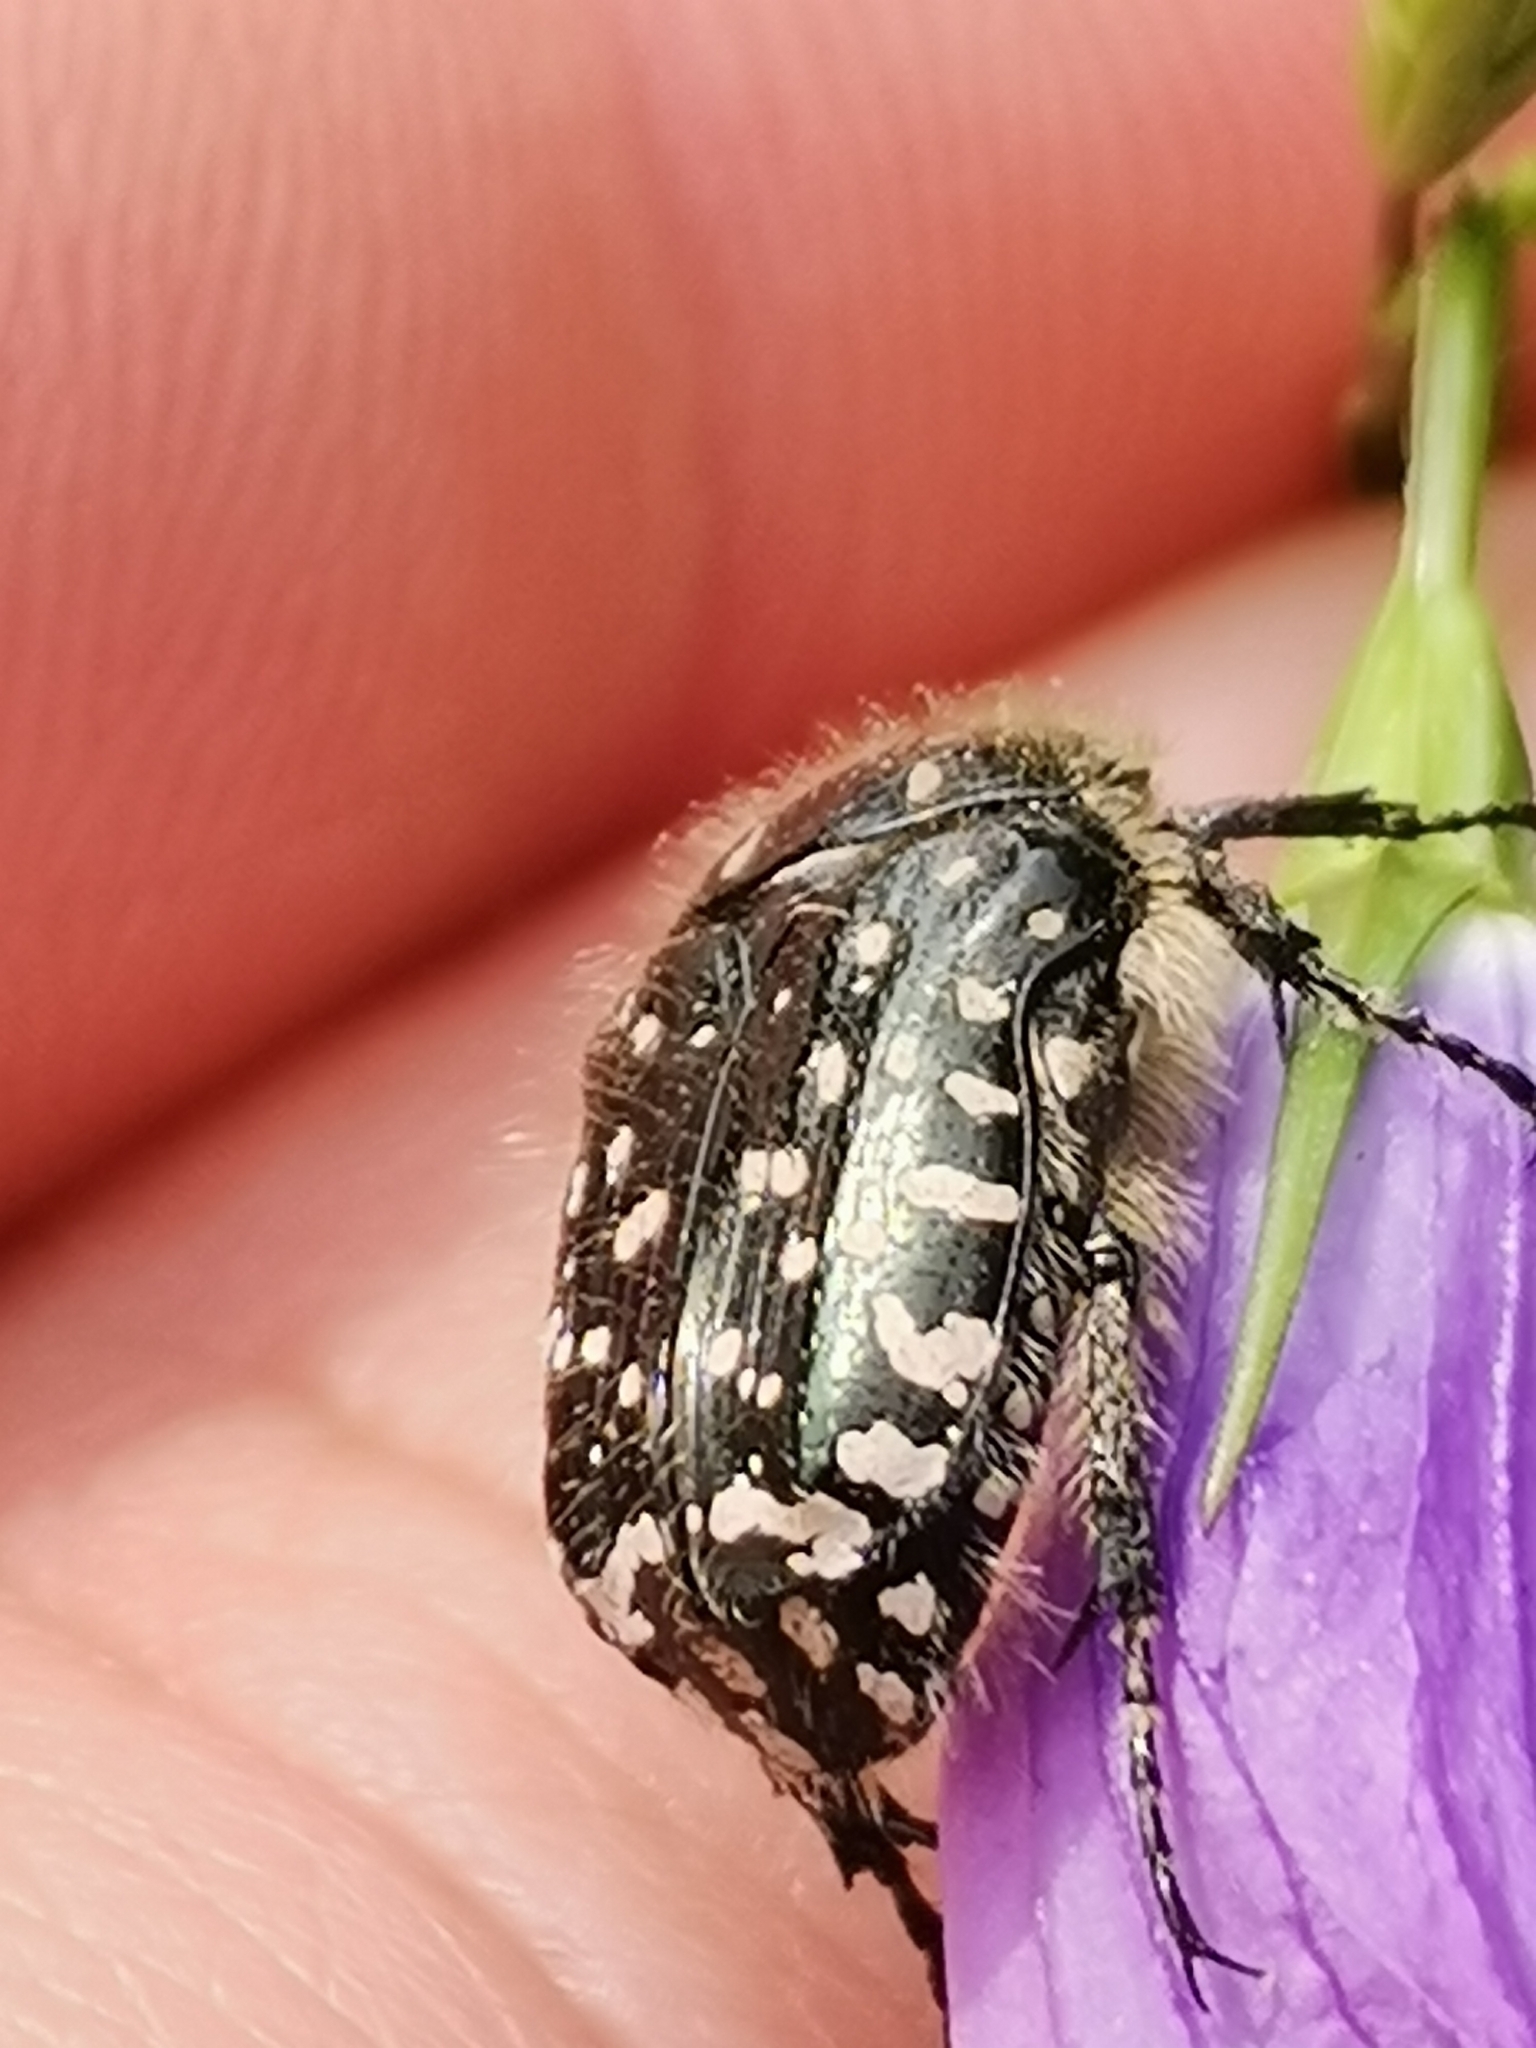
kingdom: Animalia
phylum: Arthropoda
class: Insecta
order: Coleoptera
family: Scarabaeidae
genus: Oxythyrea
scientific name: Oxythyrea funesta
